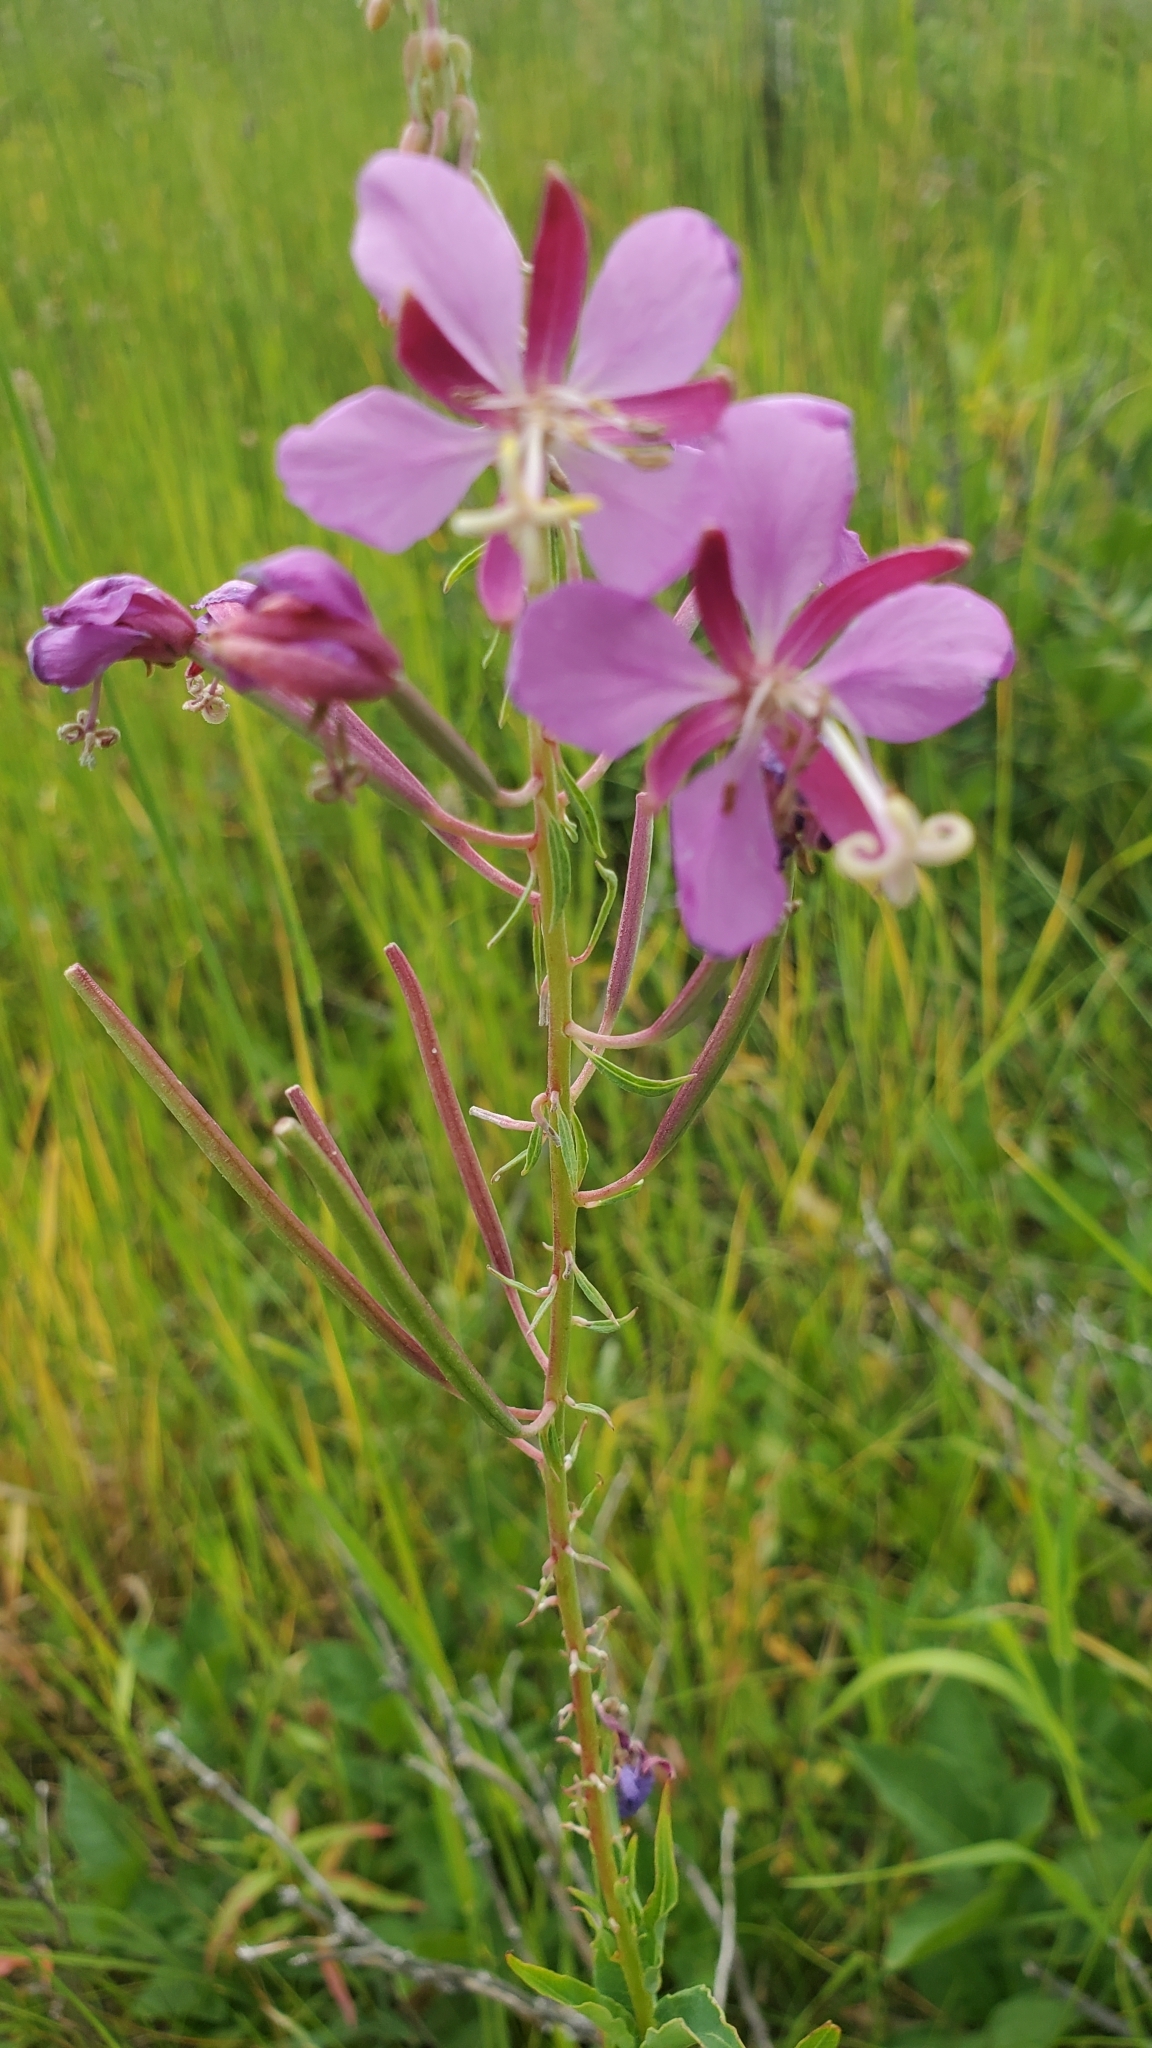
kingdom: Plantae
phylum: Tracheophyta
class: Magnoliopsida
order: Myrtales
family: Onagraceae
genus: Chamaenerion
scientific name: Chamaenerion angustifolium
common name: Fireweed
